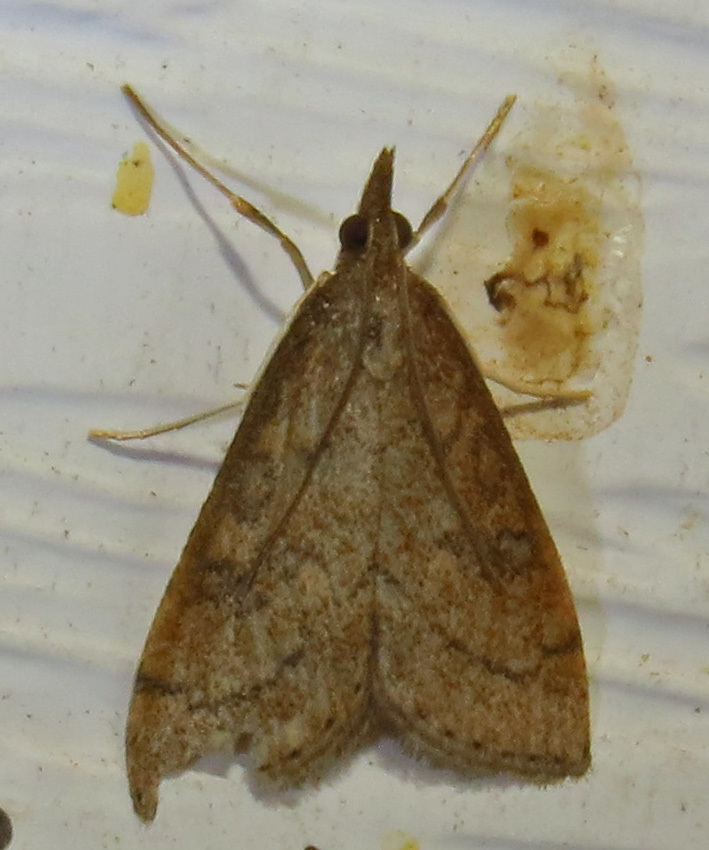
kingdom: Animalia
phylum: Arthropoda
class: Insecta
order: Lepidoptera
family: Crambidae
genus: Udea
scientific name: Udea rubigalis
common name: Celery leaftier moth
